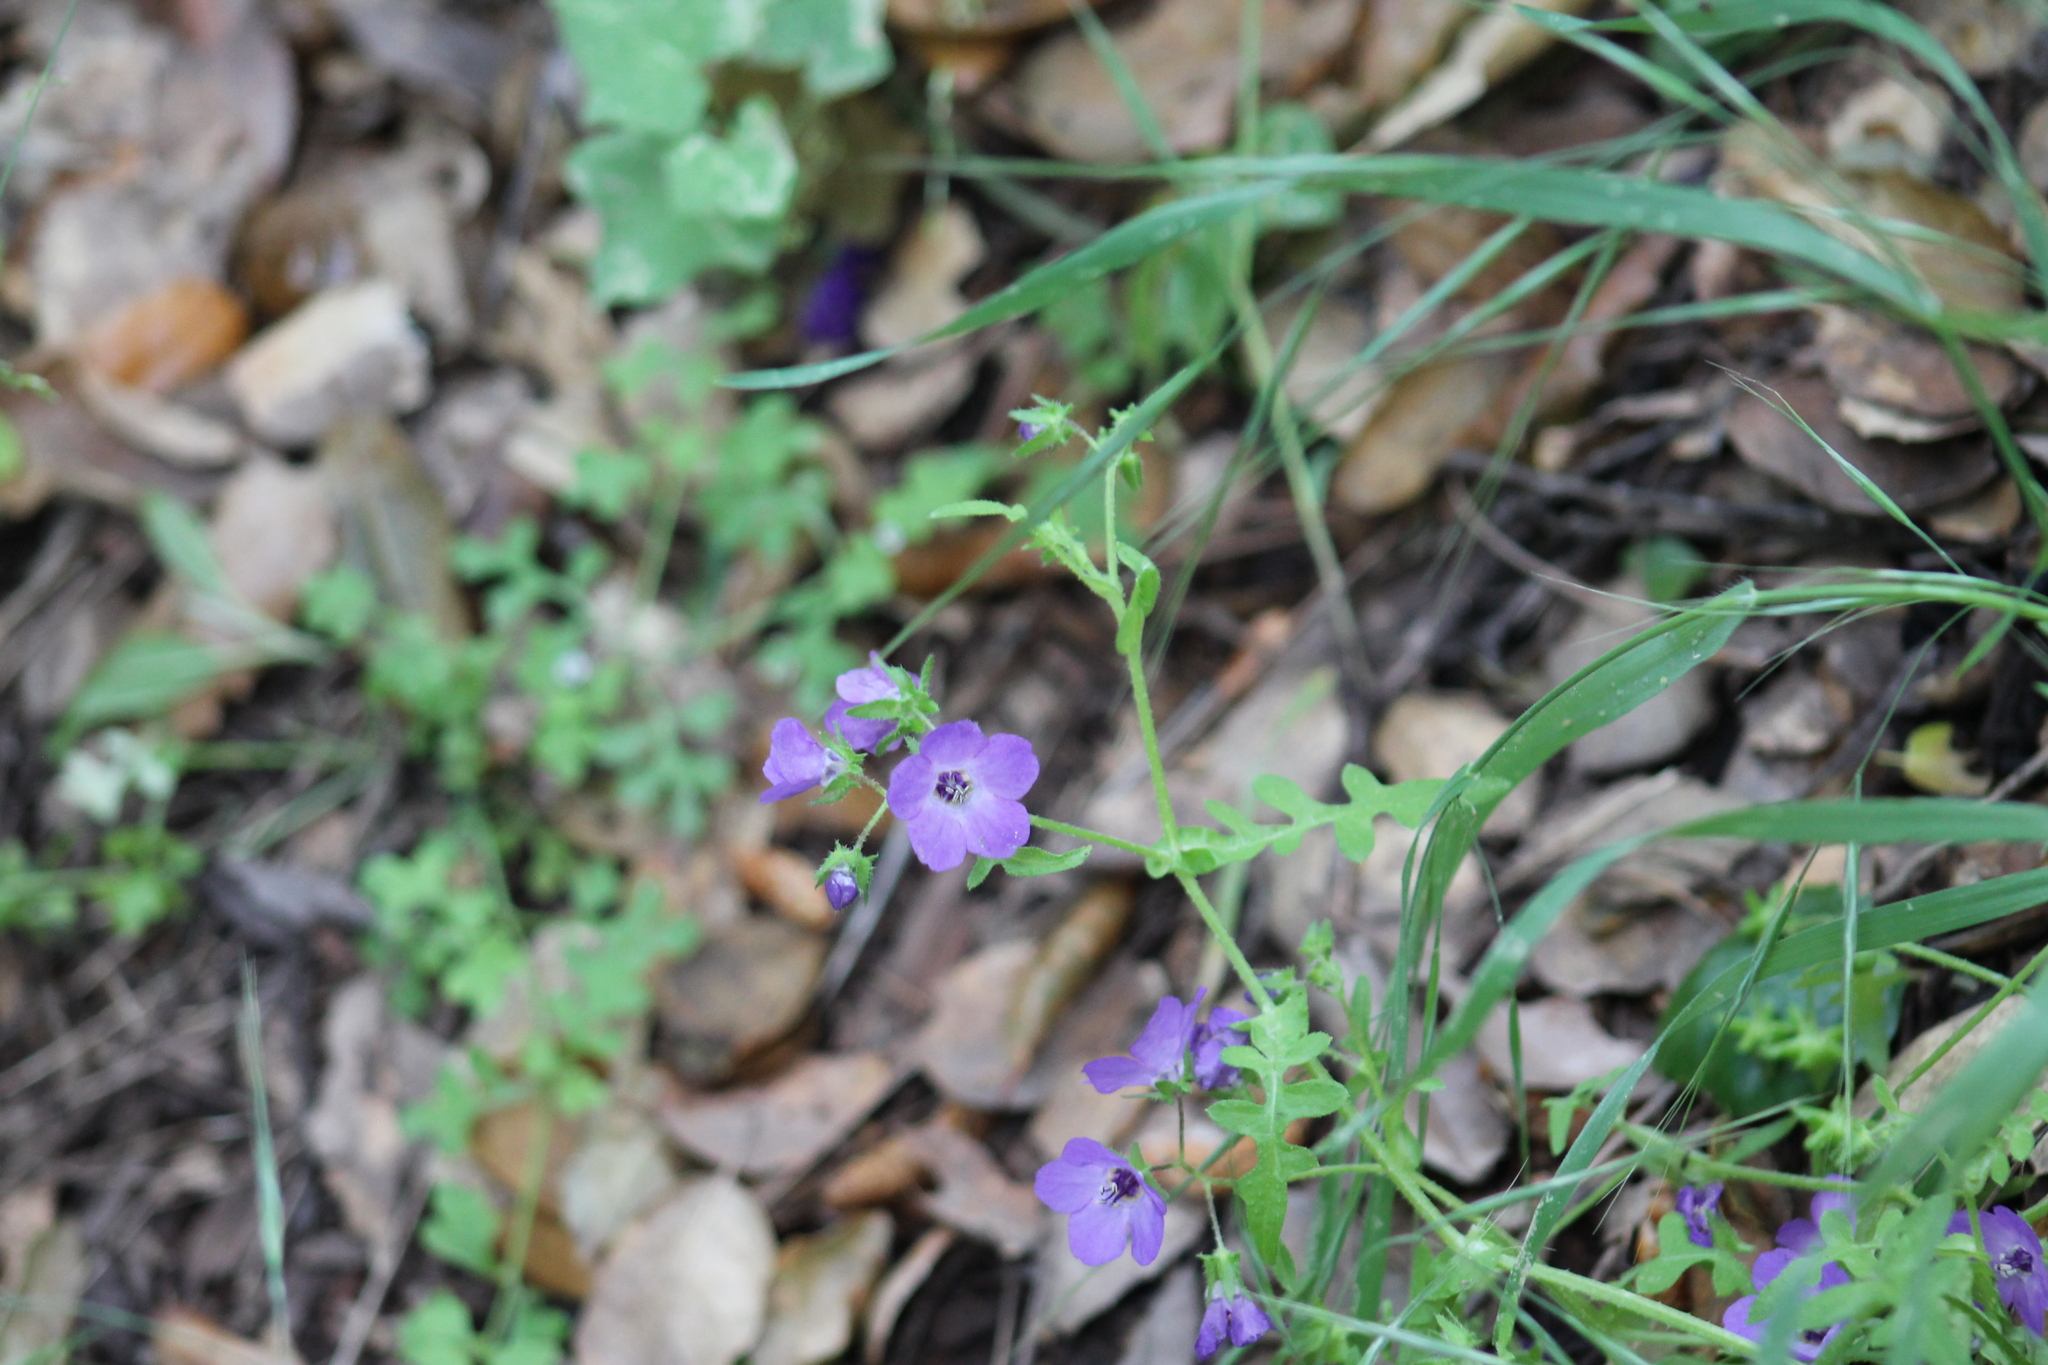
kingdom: Plantae
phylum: Tracheophyta
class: Magnoliopsida
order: Boraginales
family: Hydrophyllaceae
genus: Pholistoma
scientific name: Pholistoma auritum
